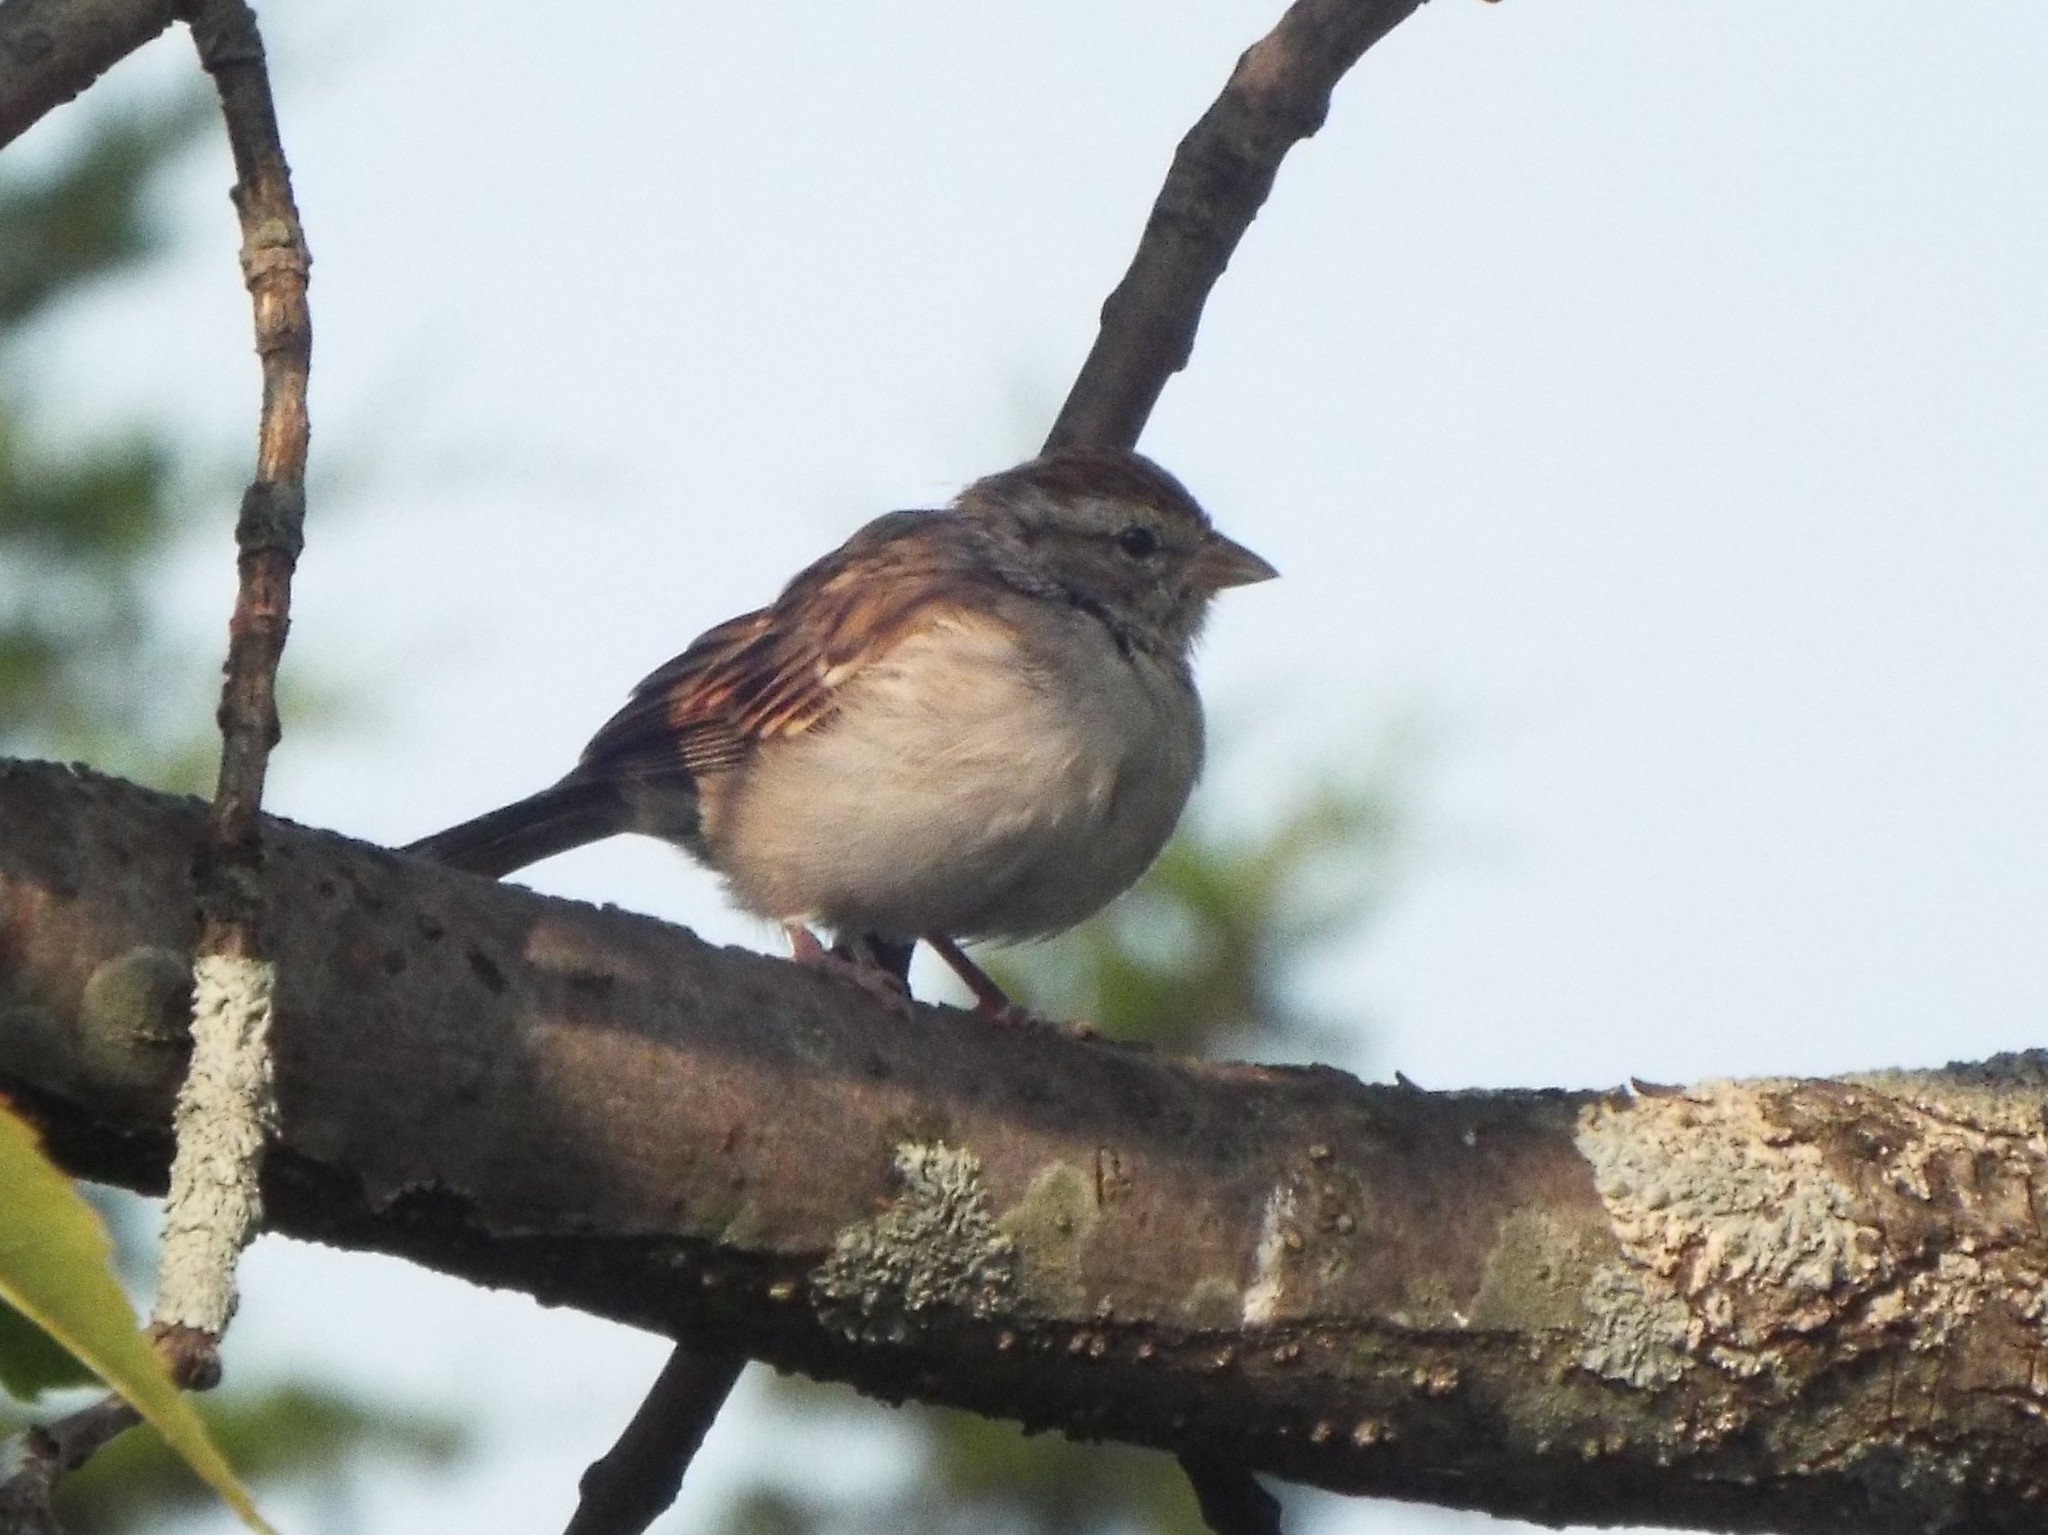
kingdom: Animalia
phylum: Chordata
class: Aves
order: Passeriformes
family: Passerellidae
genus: Spizella
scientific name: Spizella passerina
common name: Chipping sparrow
